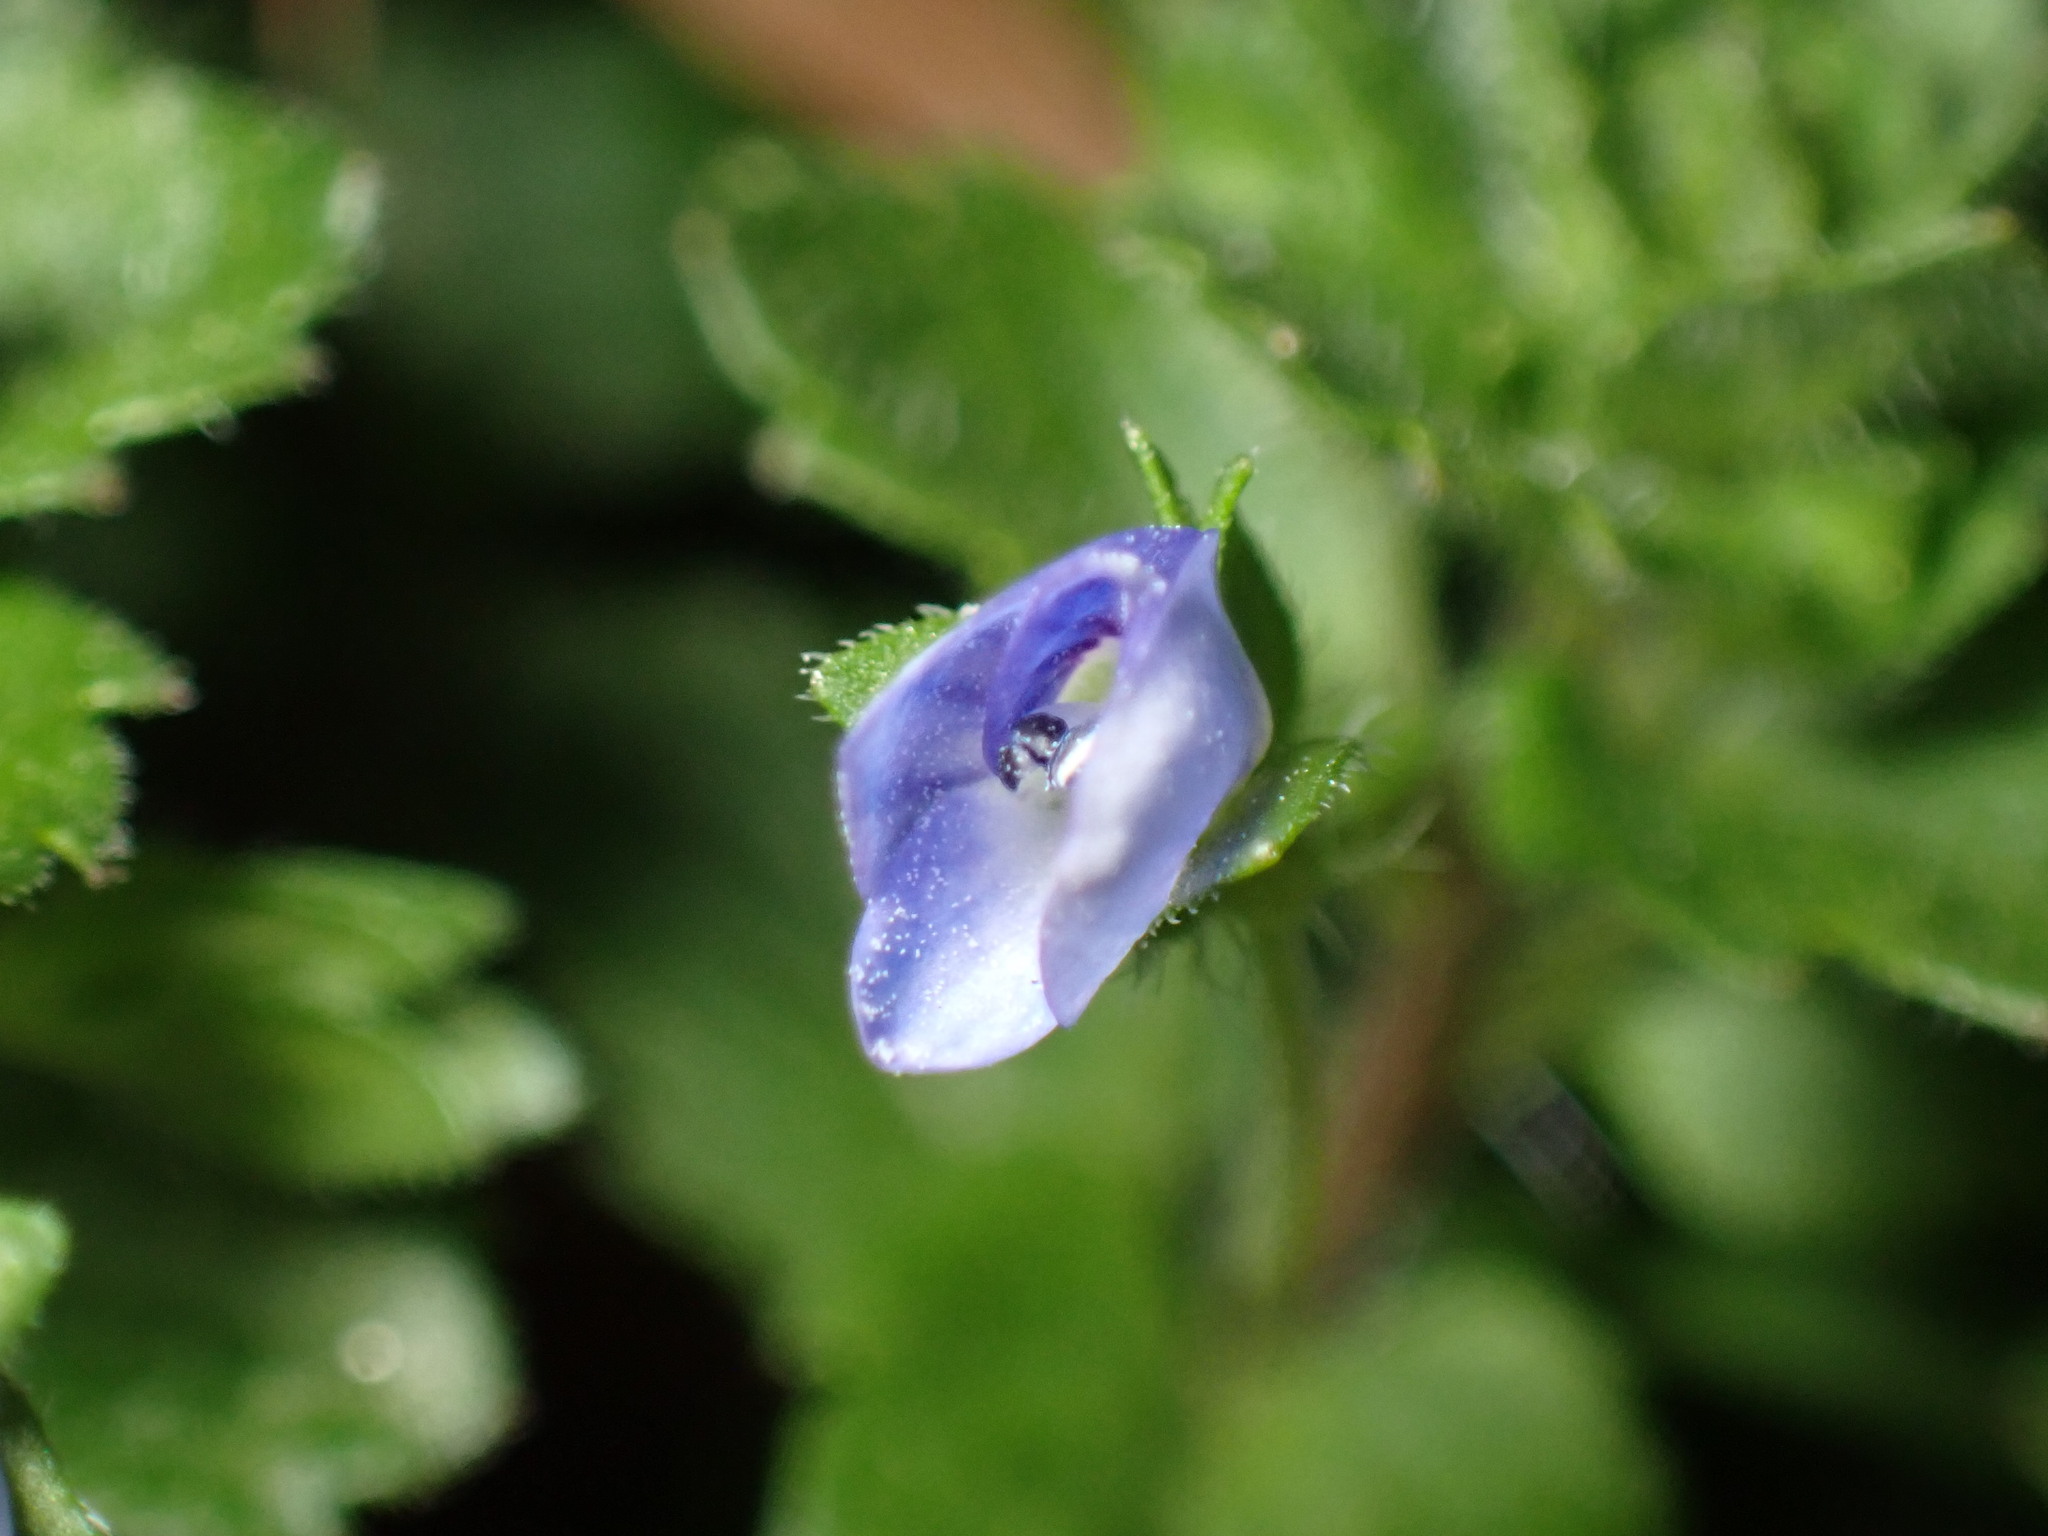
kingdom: Plantae
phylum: Tracheophyta
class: Magnoliopsida
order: Lamiales
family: Plantaginaceae
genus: Veronica
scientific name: Veronica persica
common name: Common field-speedwell
